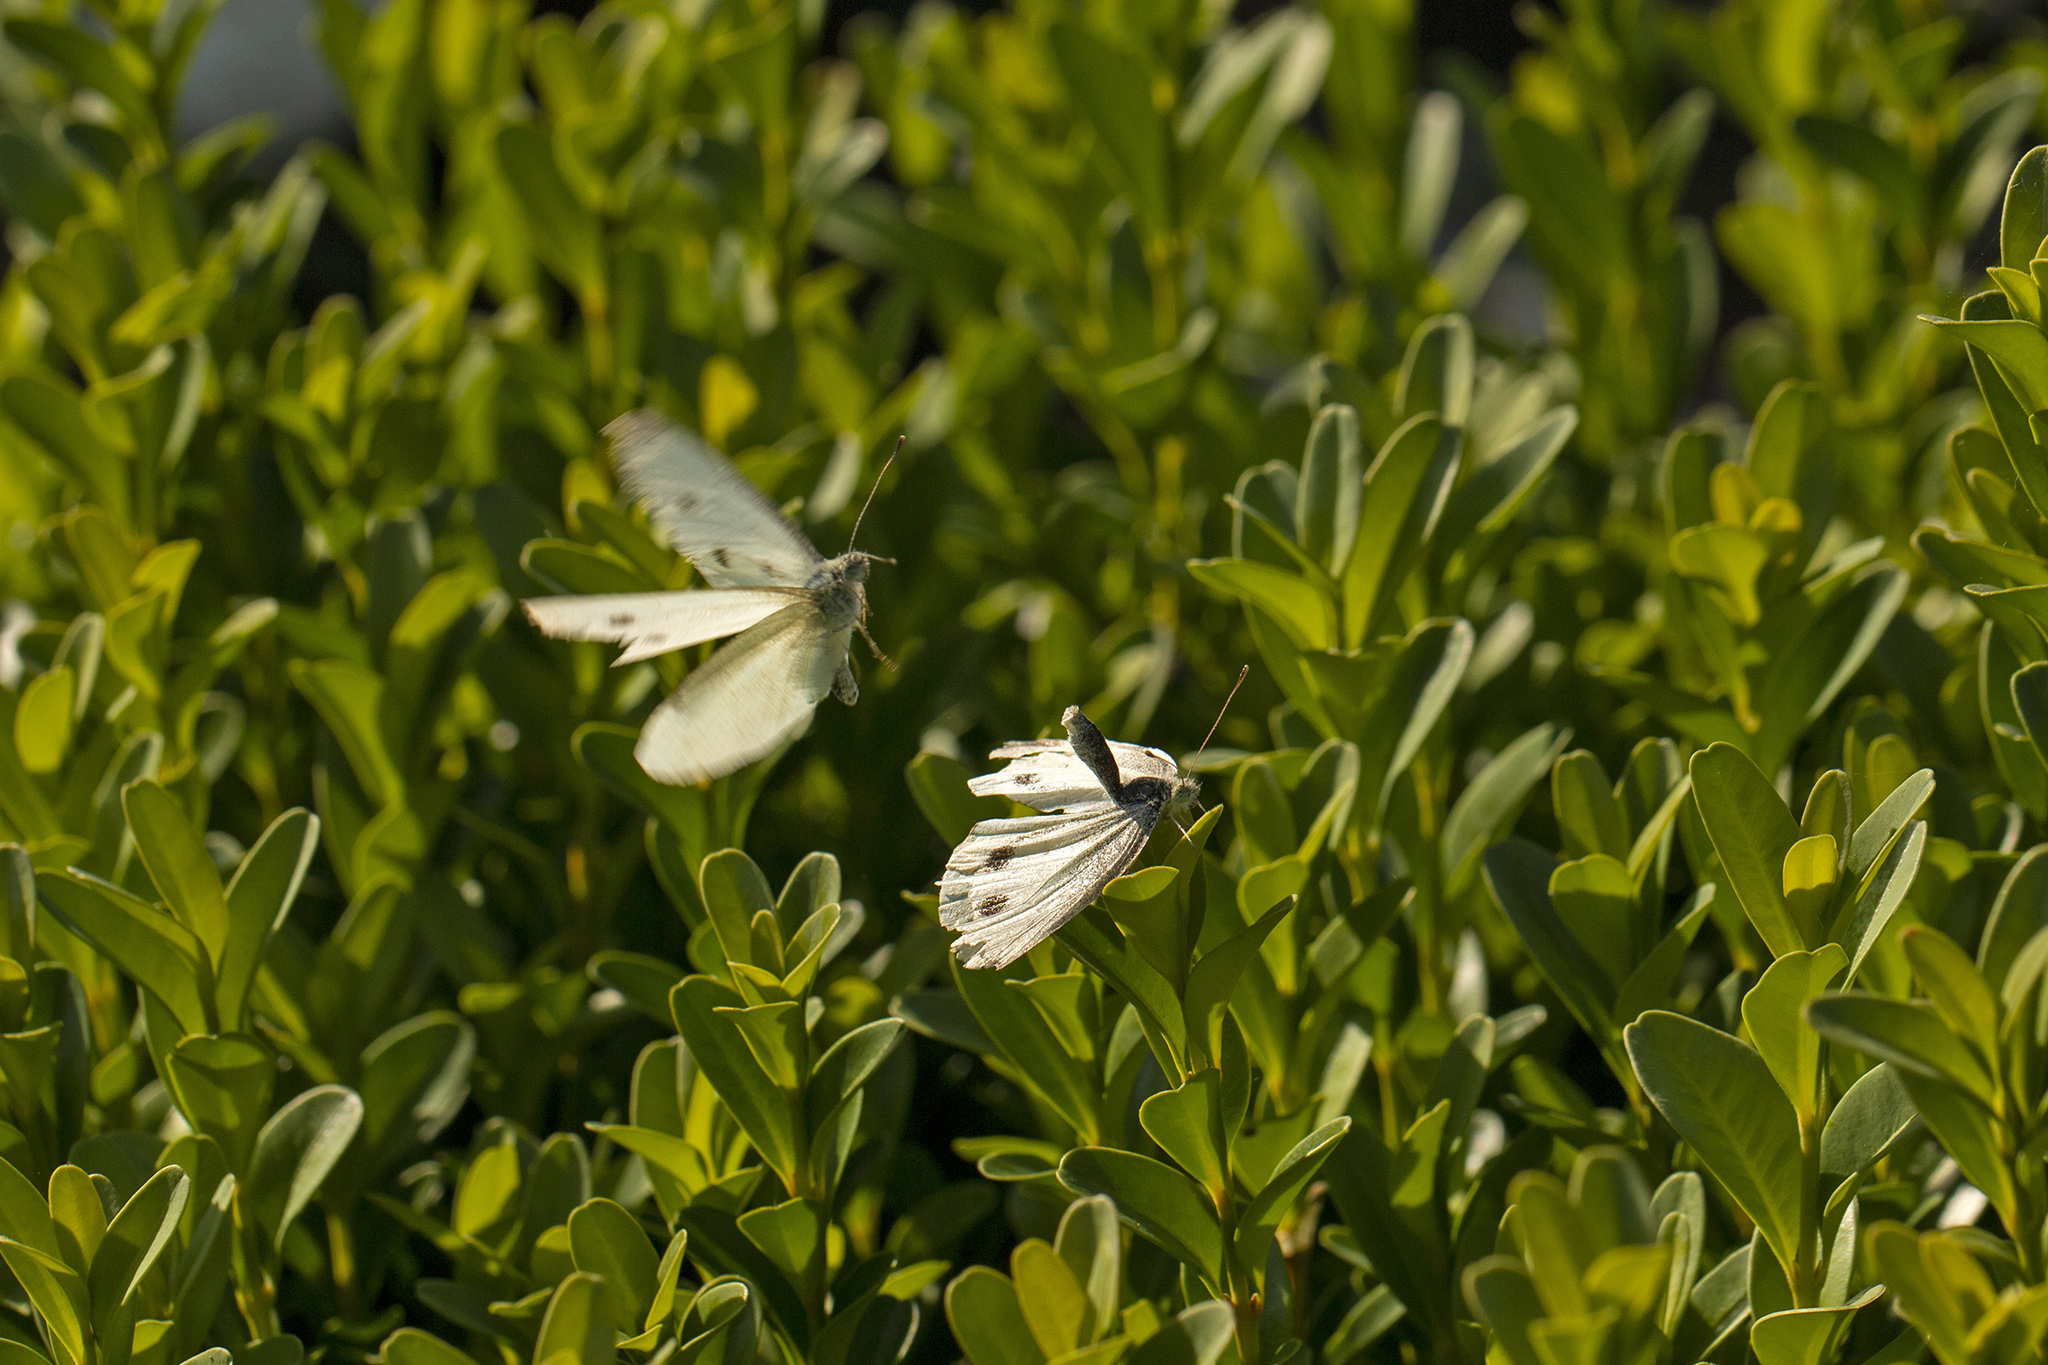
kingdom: Animalia
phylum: Arthropoda
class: Insecta
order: Lepidoptera
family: Pieridae
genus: Pieris
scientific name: Pieris rapae
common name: Small white
